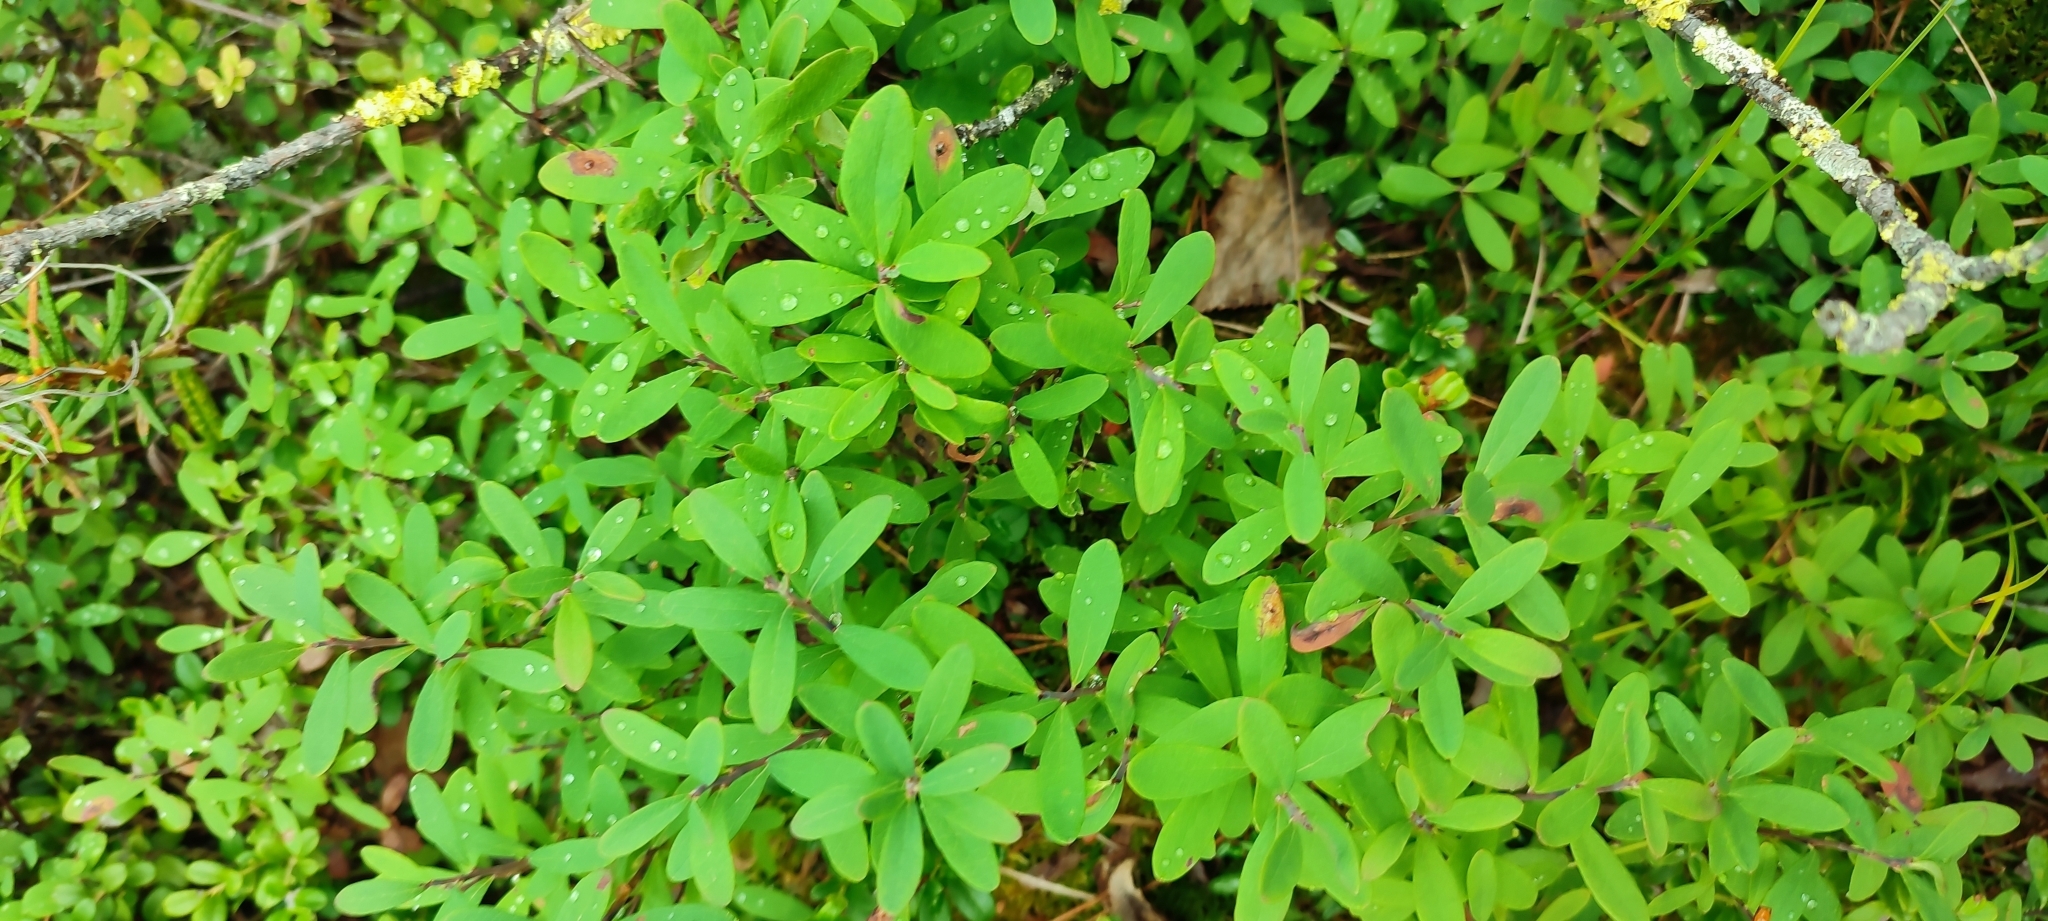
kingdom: Plantae
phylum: Tracheophyta
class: Magnoliopsida
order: Ericales
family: Ericaceae
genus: Vaccinium
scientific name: Vaccinium uliginosum
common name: Bog bilberry
